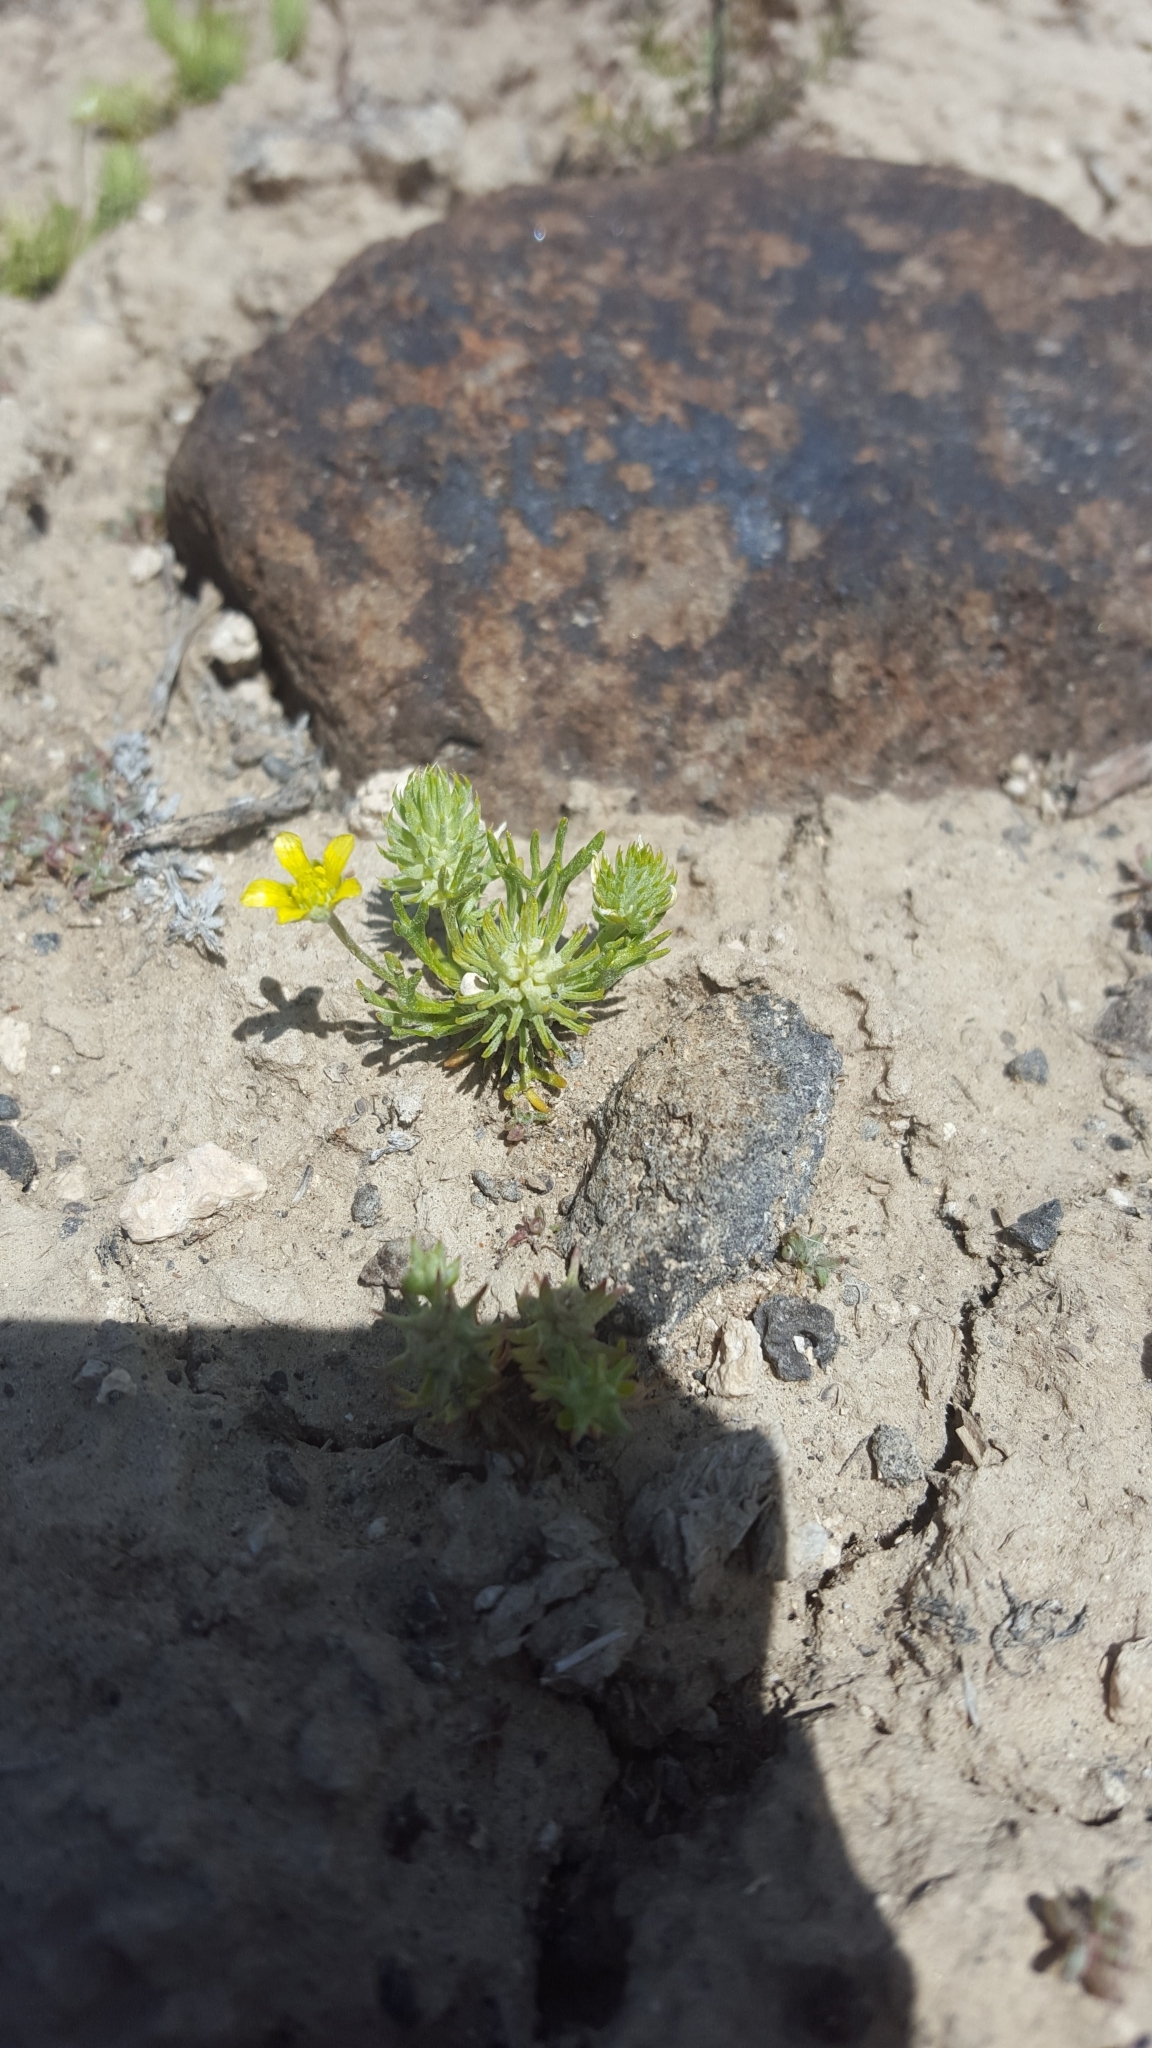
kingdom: Plantae
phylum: Tracheophyta
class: Magnoliopsida
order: Ranunculales
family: Ranunculaceae
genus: Ceratocephala
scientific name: Ceratocephala orthoceras
